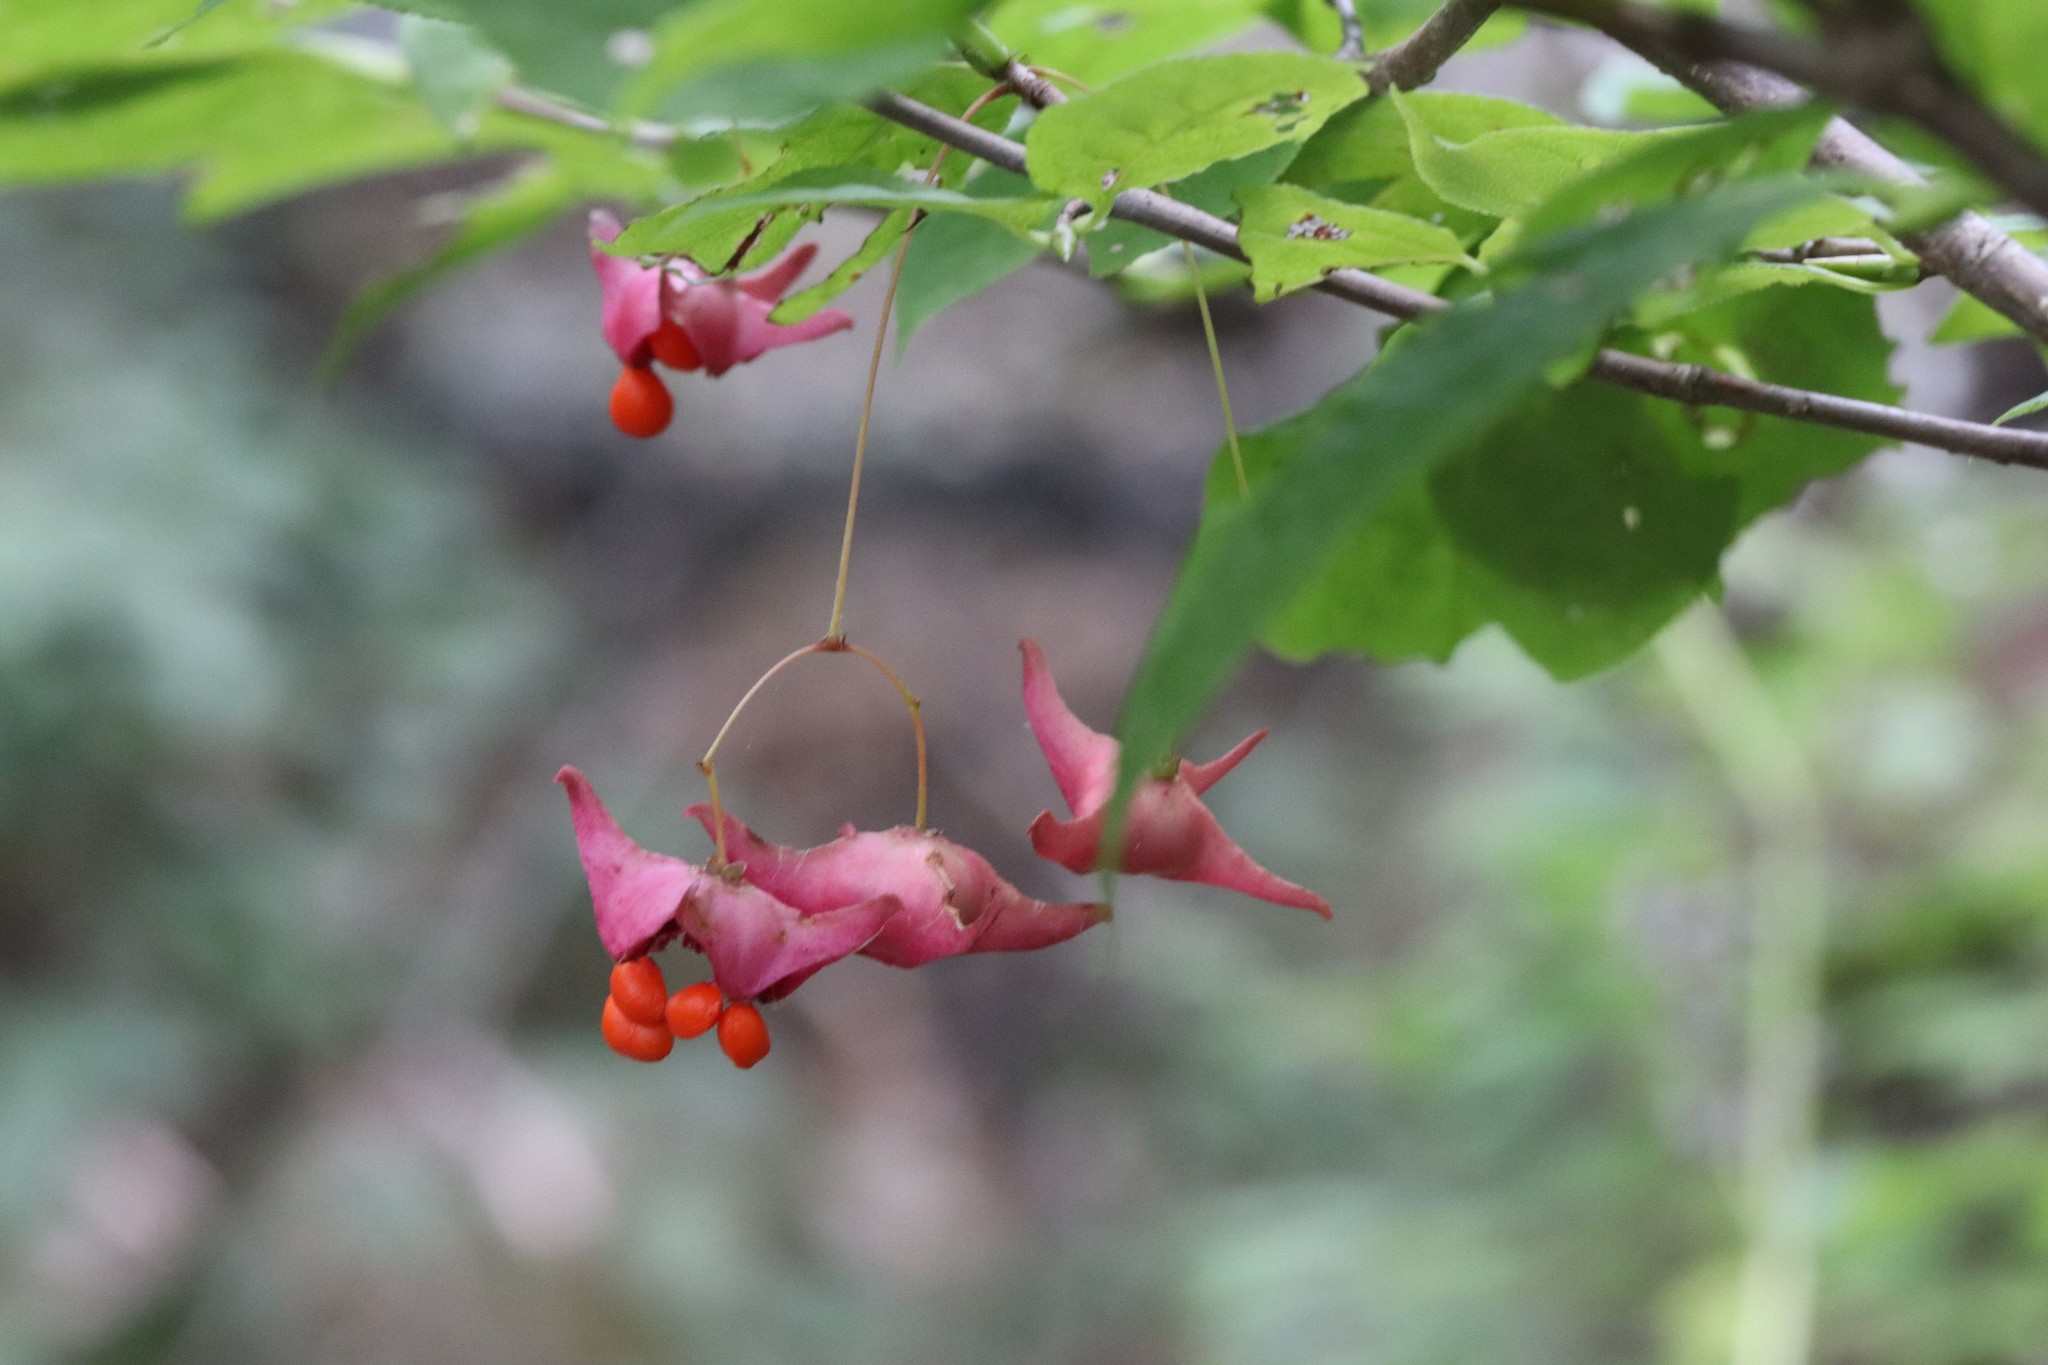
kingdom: Plantae
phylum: Tracheophyta
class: Magnoliopsida
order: Celastrales
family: Celastraceae
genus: Euonymus
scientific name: Euonymus macropterus
